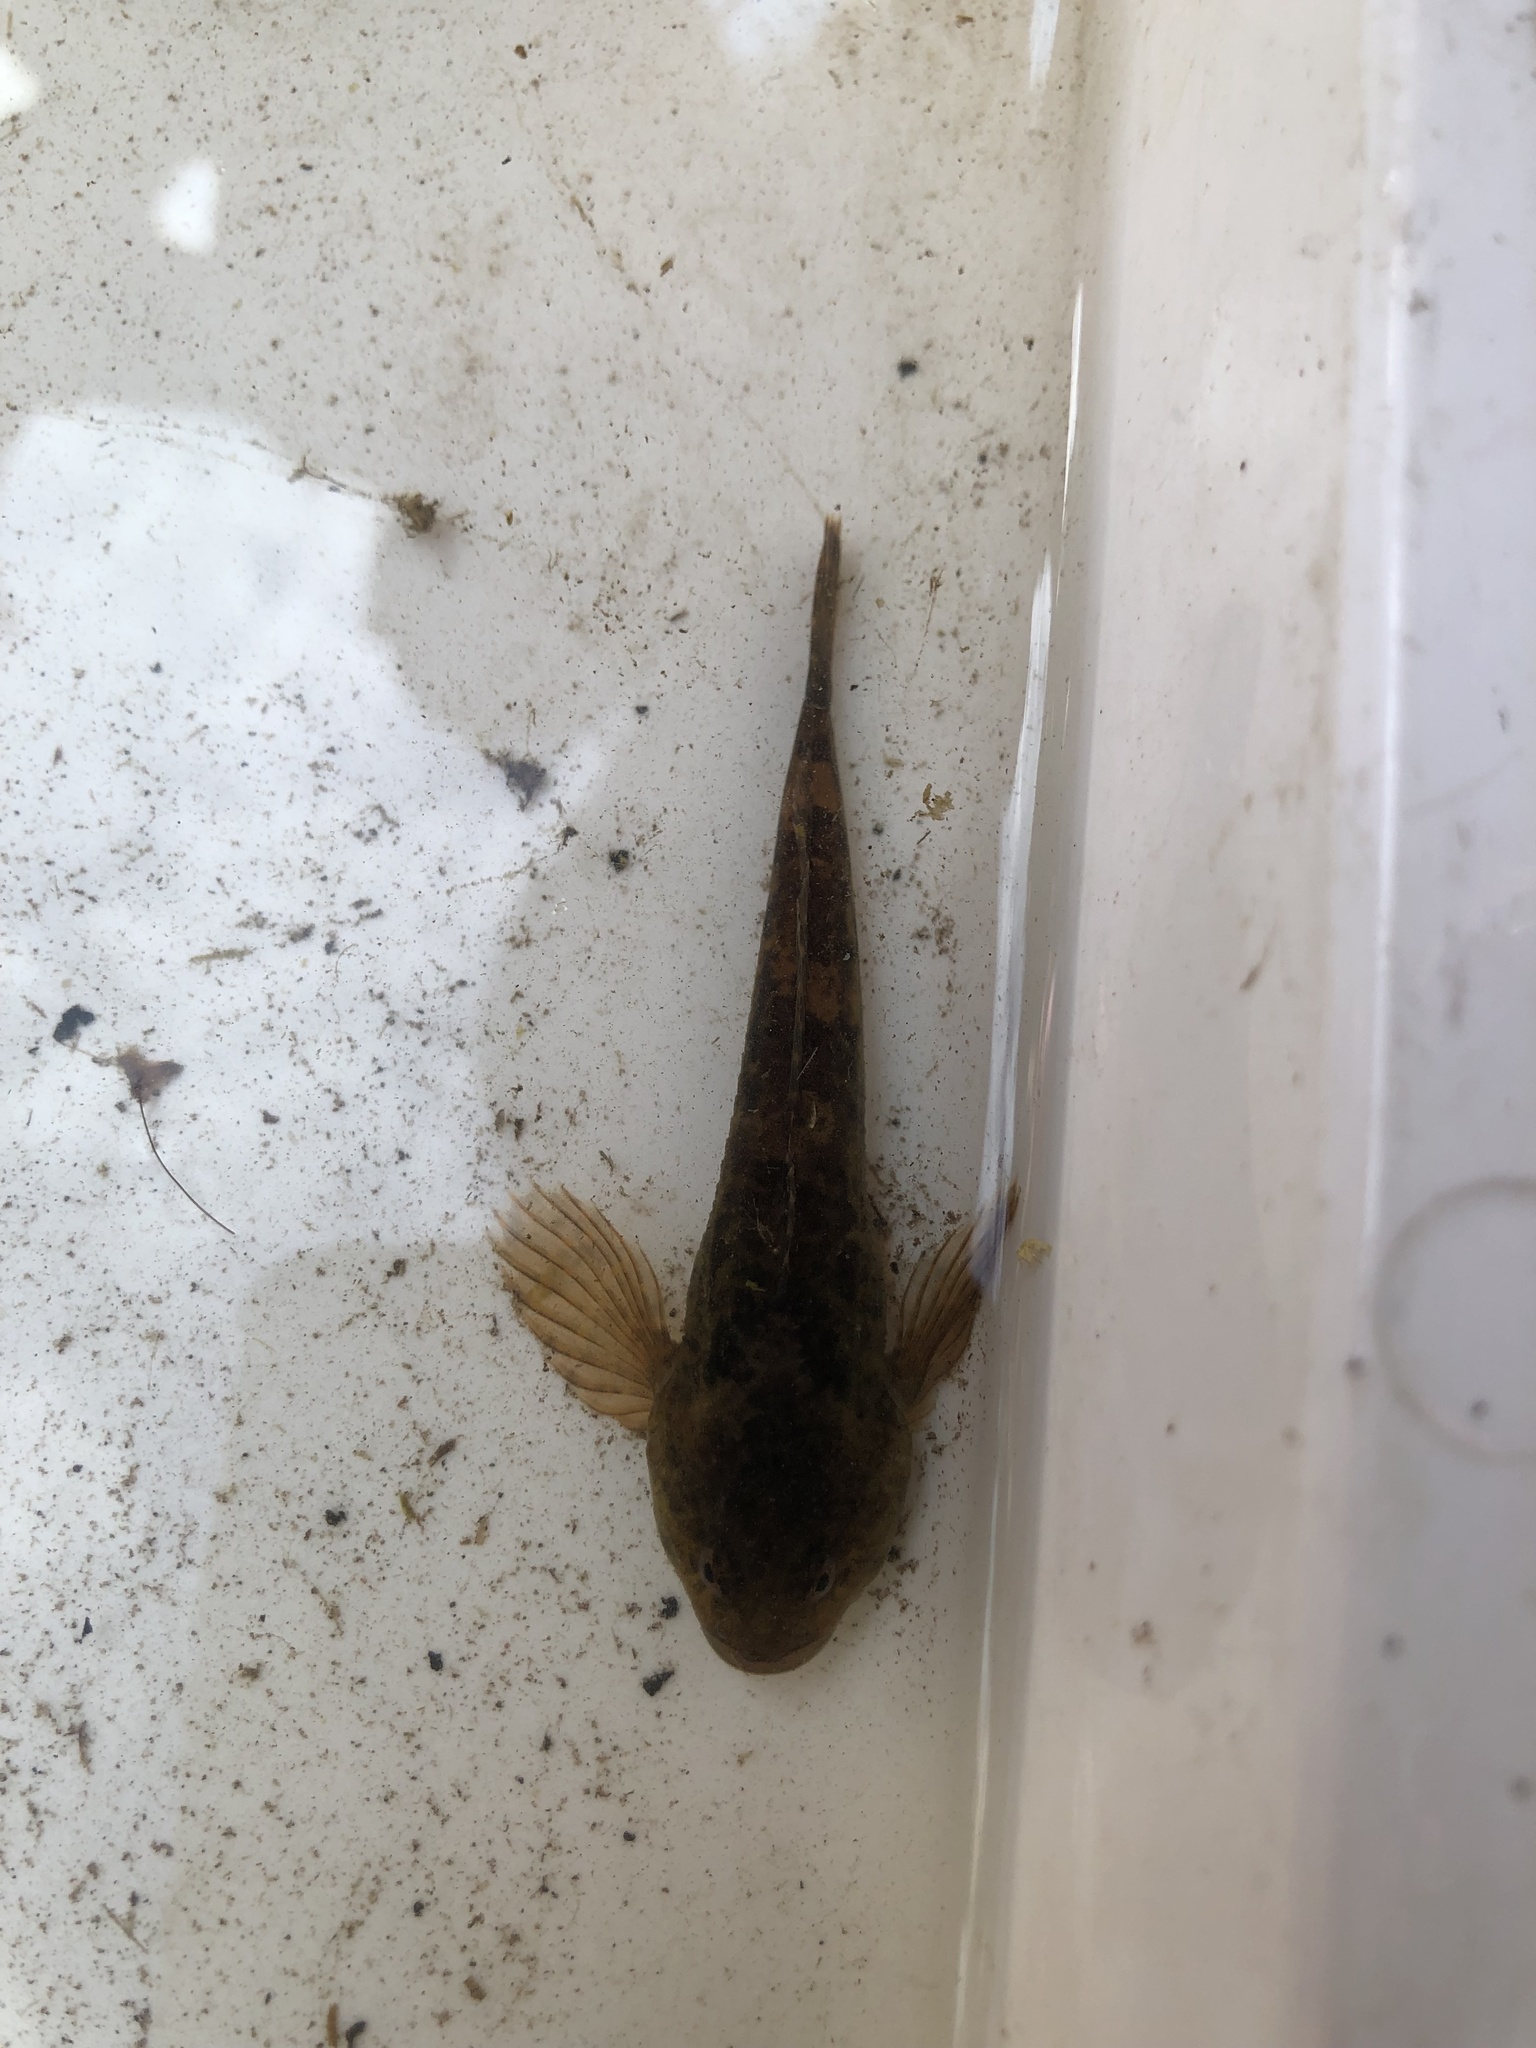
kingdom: Animalia
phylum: Chordata
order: Scorpaeniformes
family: Cottidae
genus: Cottus
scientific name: Cottus perifretum
